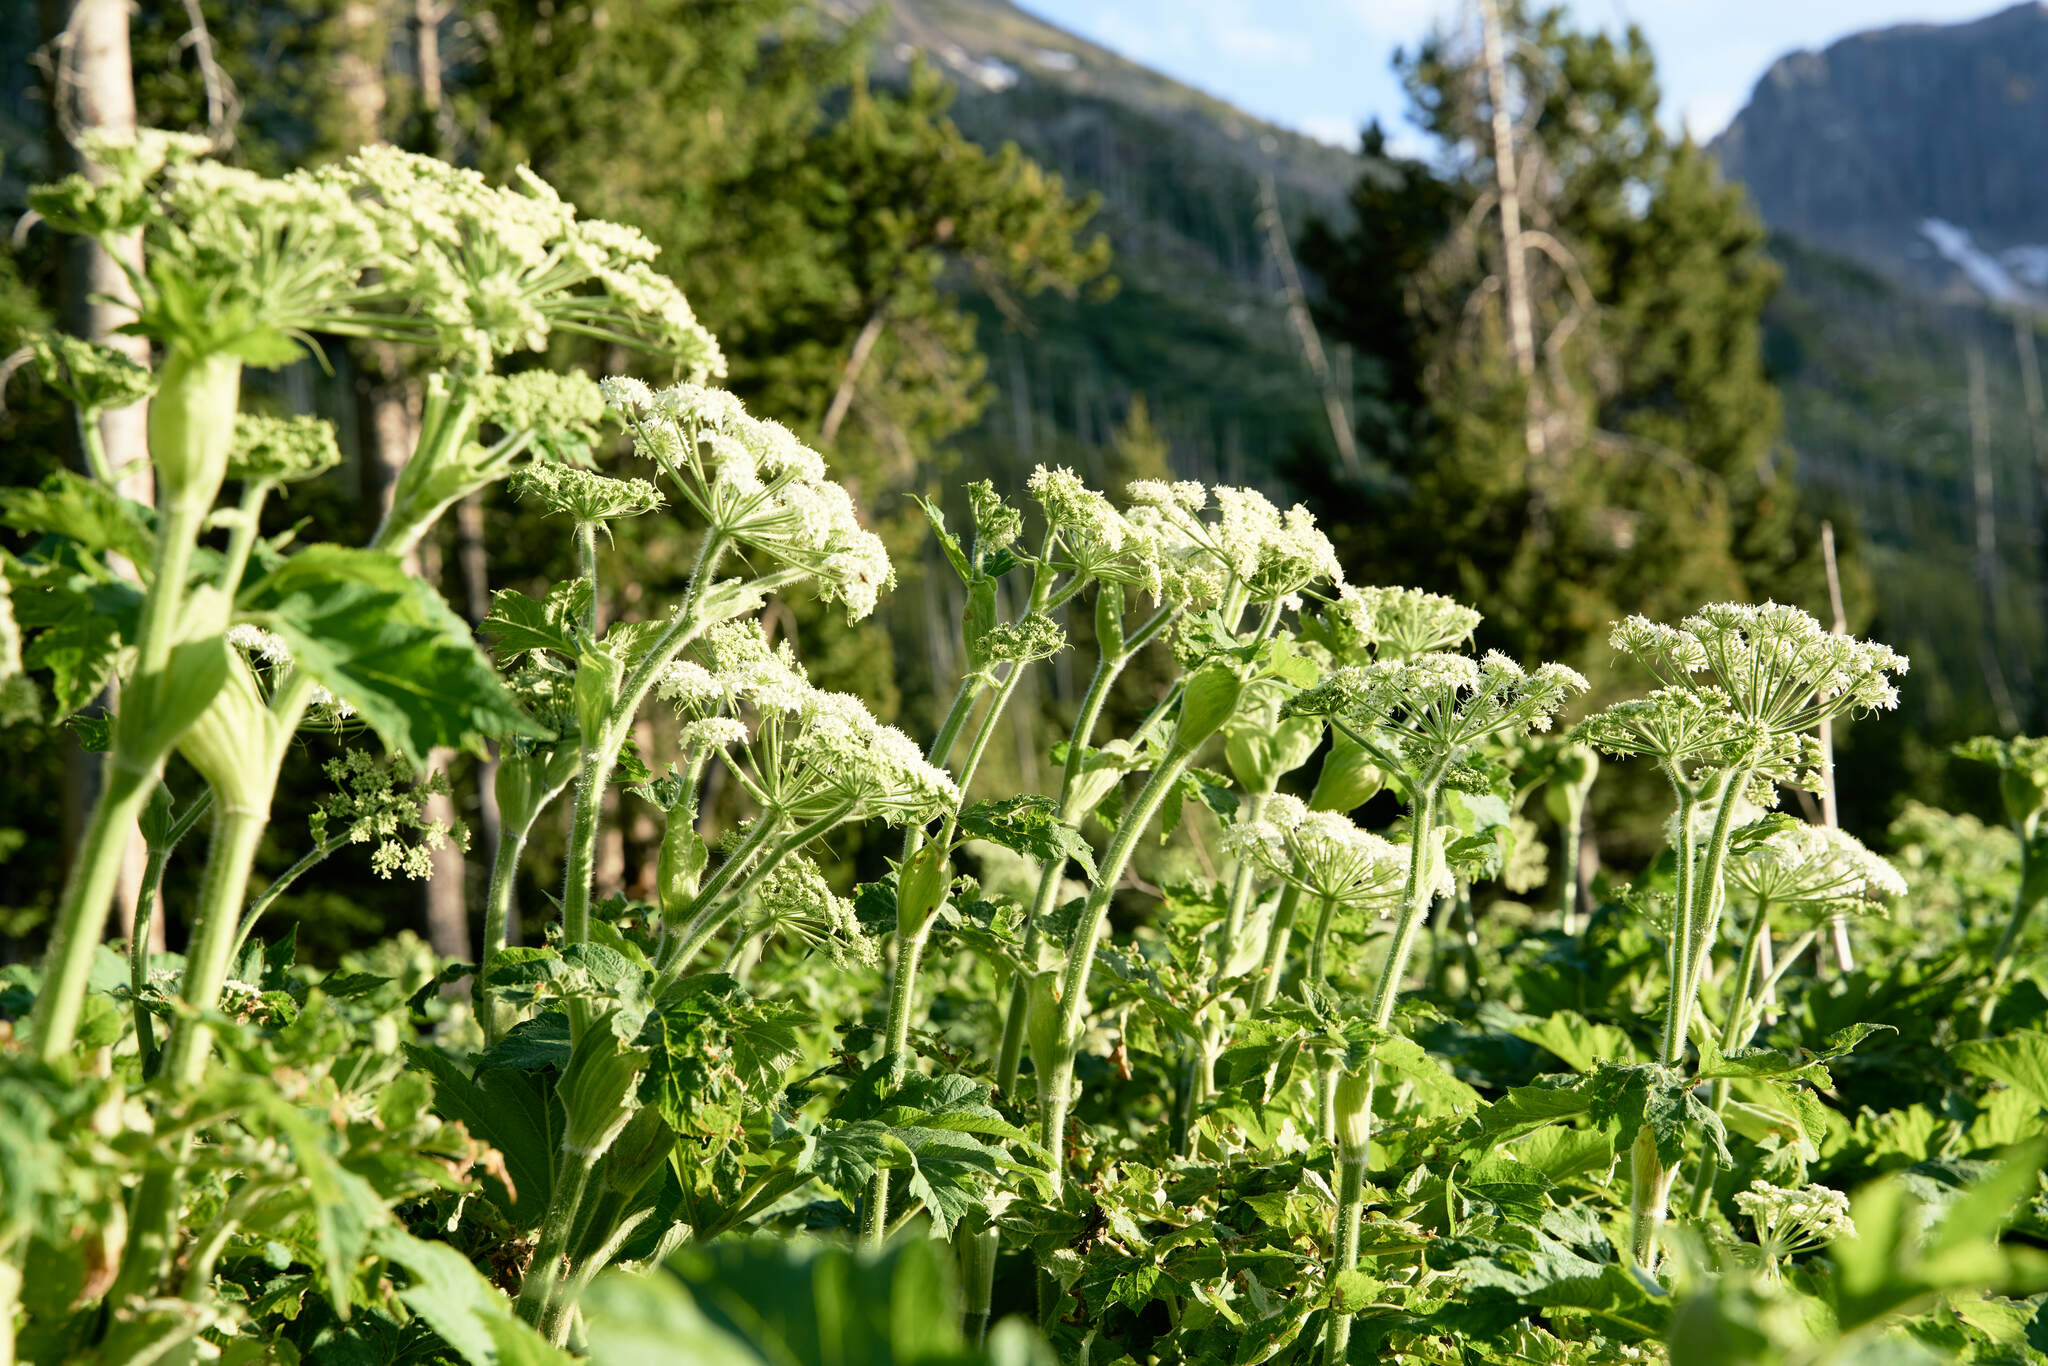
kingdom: Plantae
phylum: Tracheophyta
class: Magnoliopsida
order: Apiales
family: Apiaceae
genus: Heracleum
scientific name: Heracleum maximum
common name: American cow parsnip
